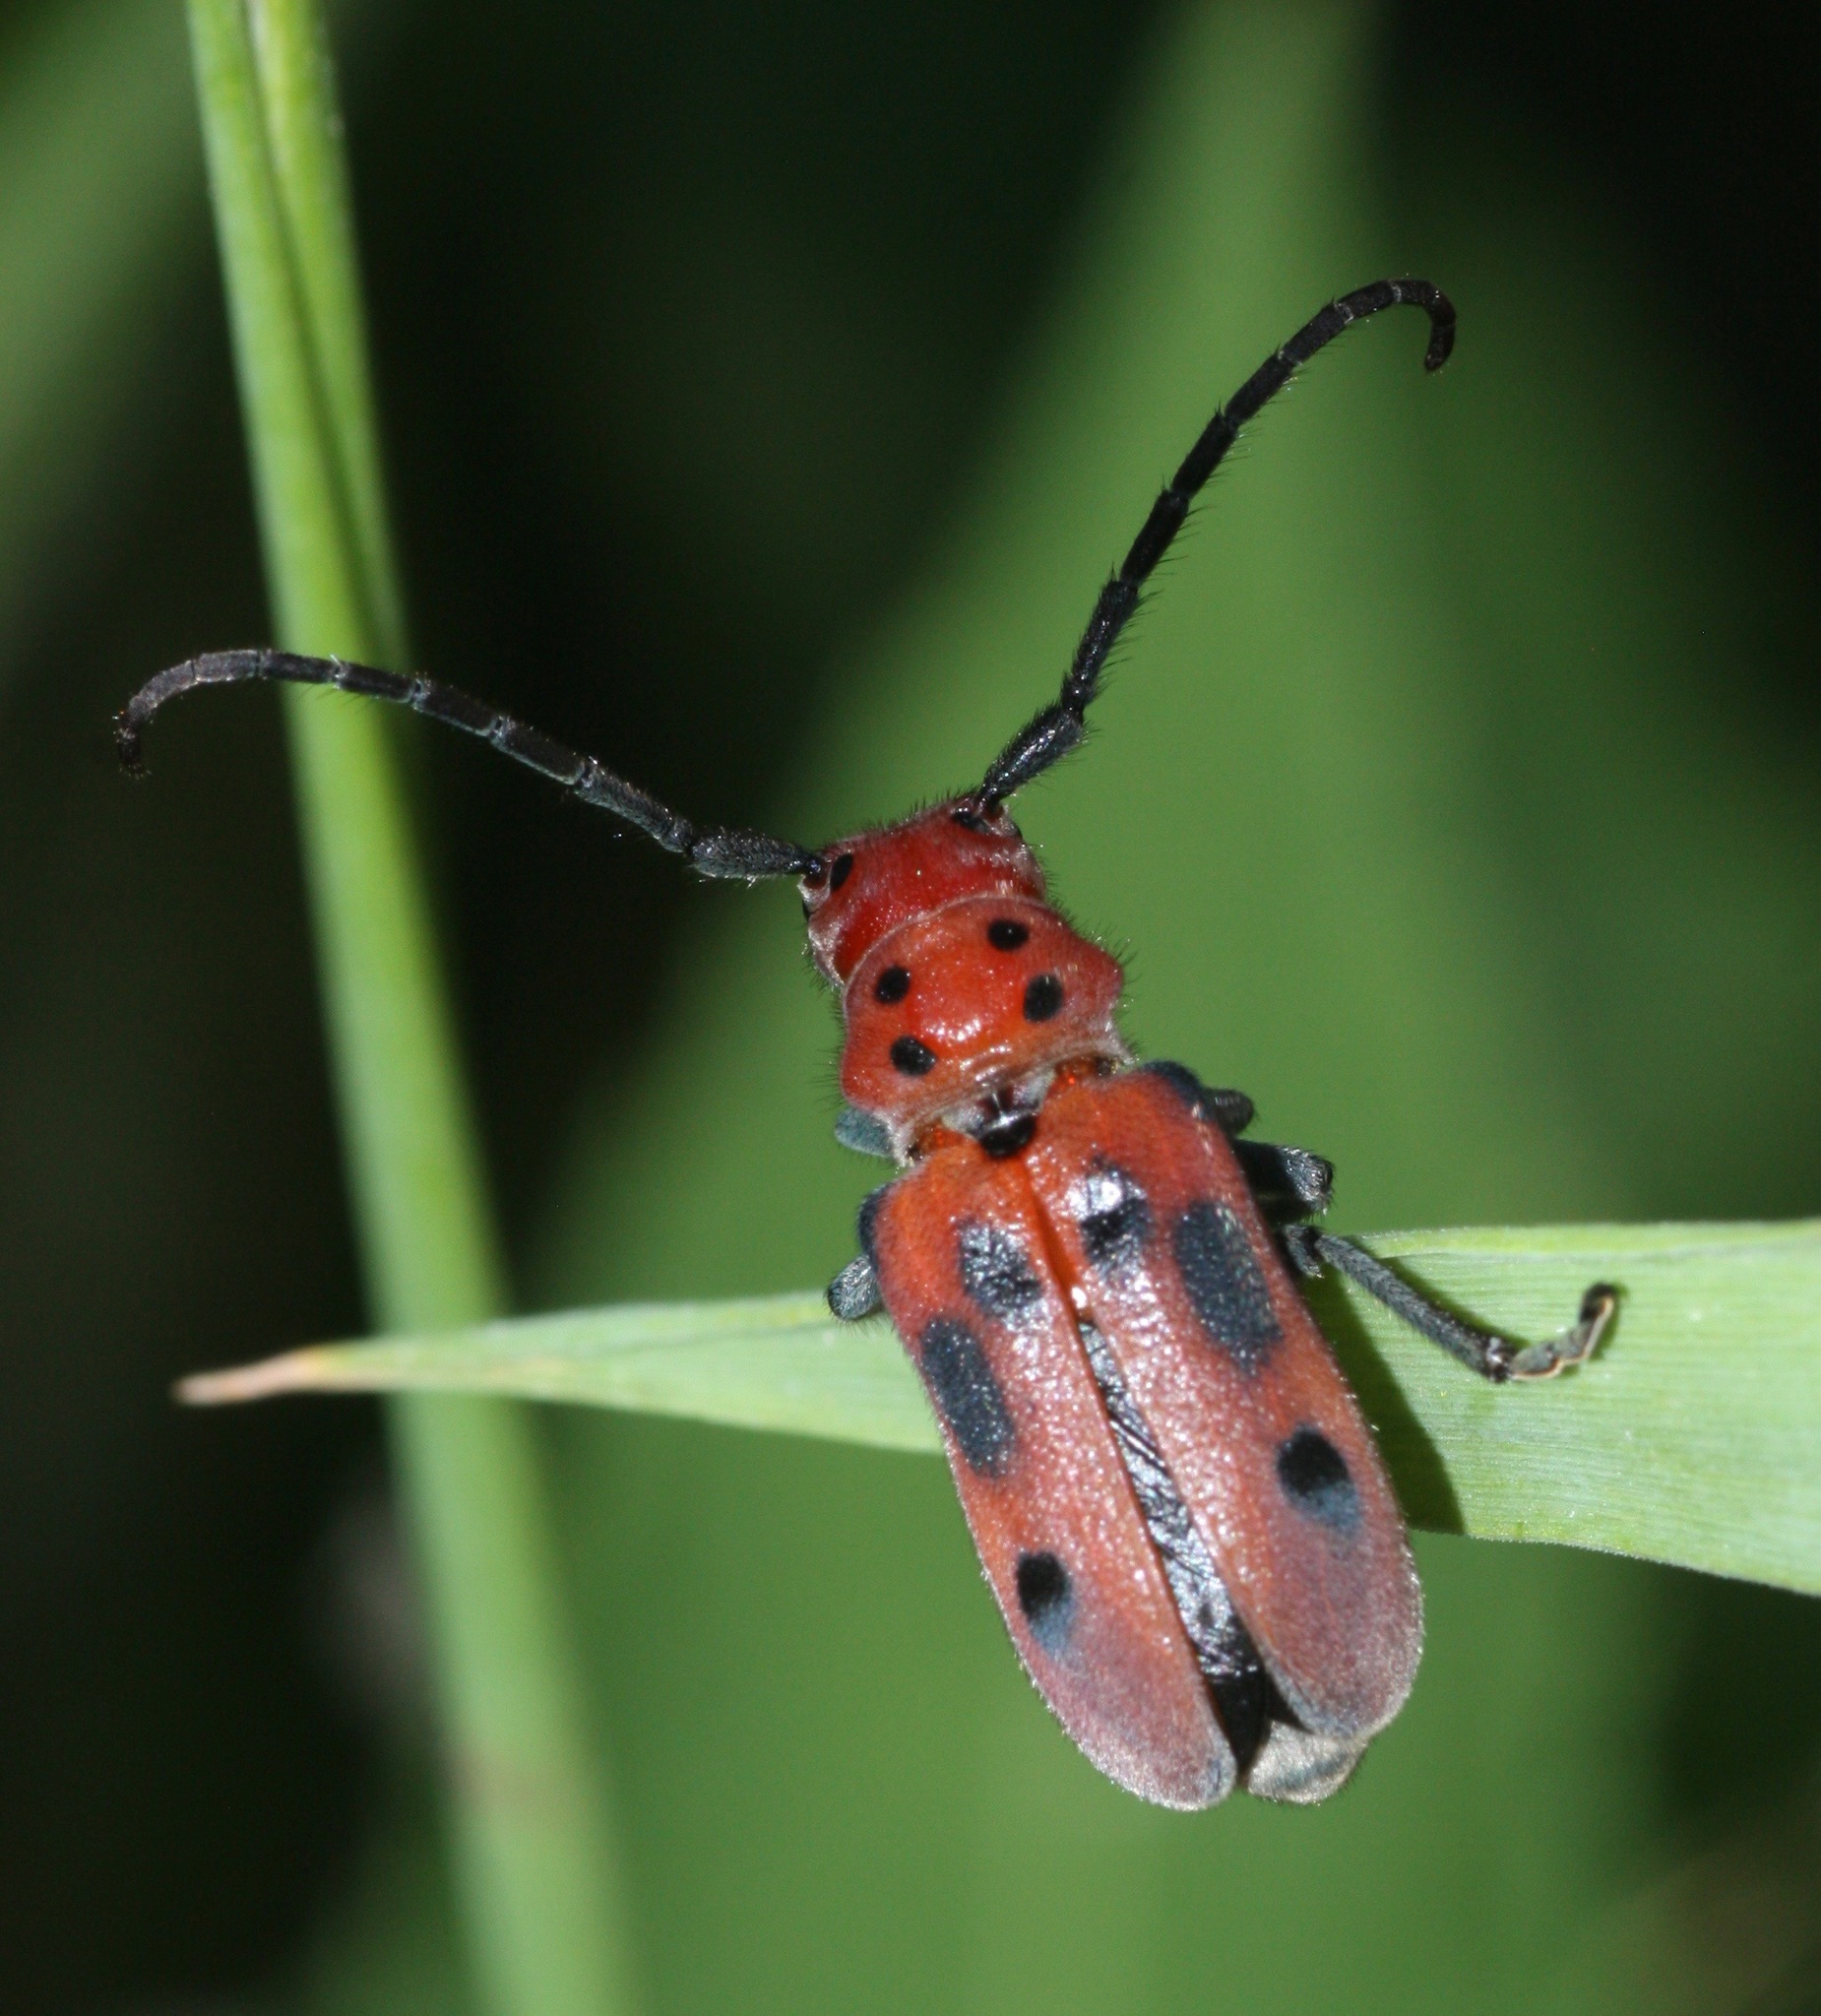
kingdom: Animalia
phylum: Arthropoda
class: Insecta
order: Coleoptera
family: Cerambycidae
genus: Tetraopes
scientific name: Tetraopes tetrophthalmus
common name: Red milkweed beetle
